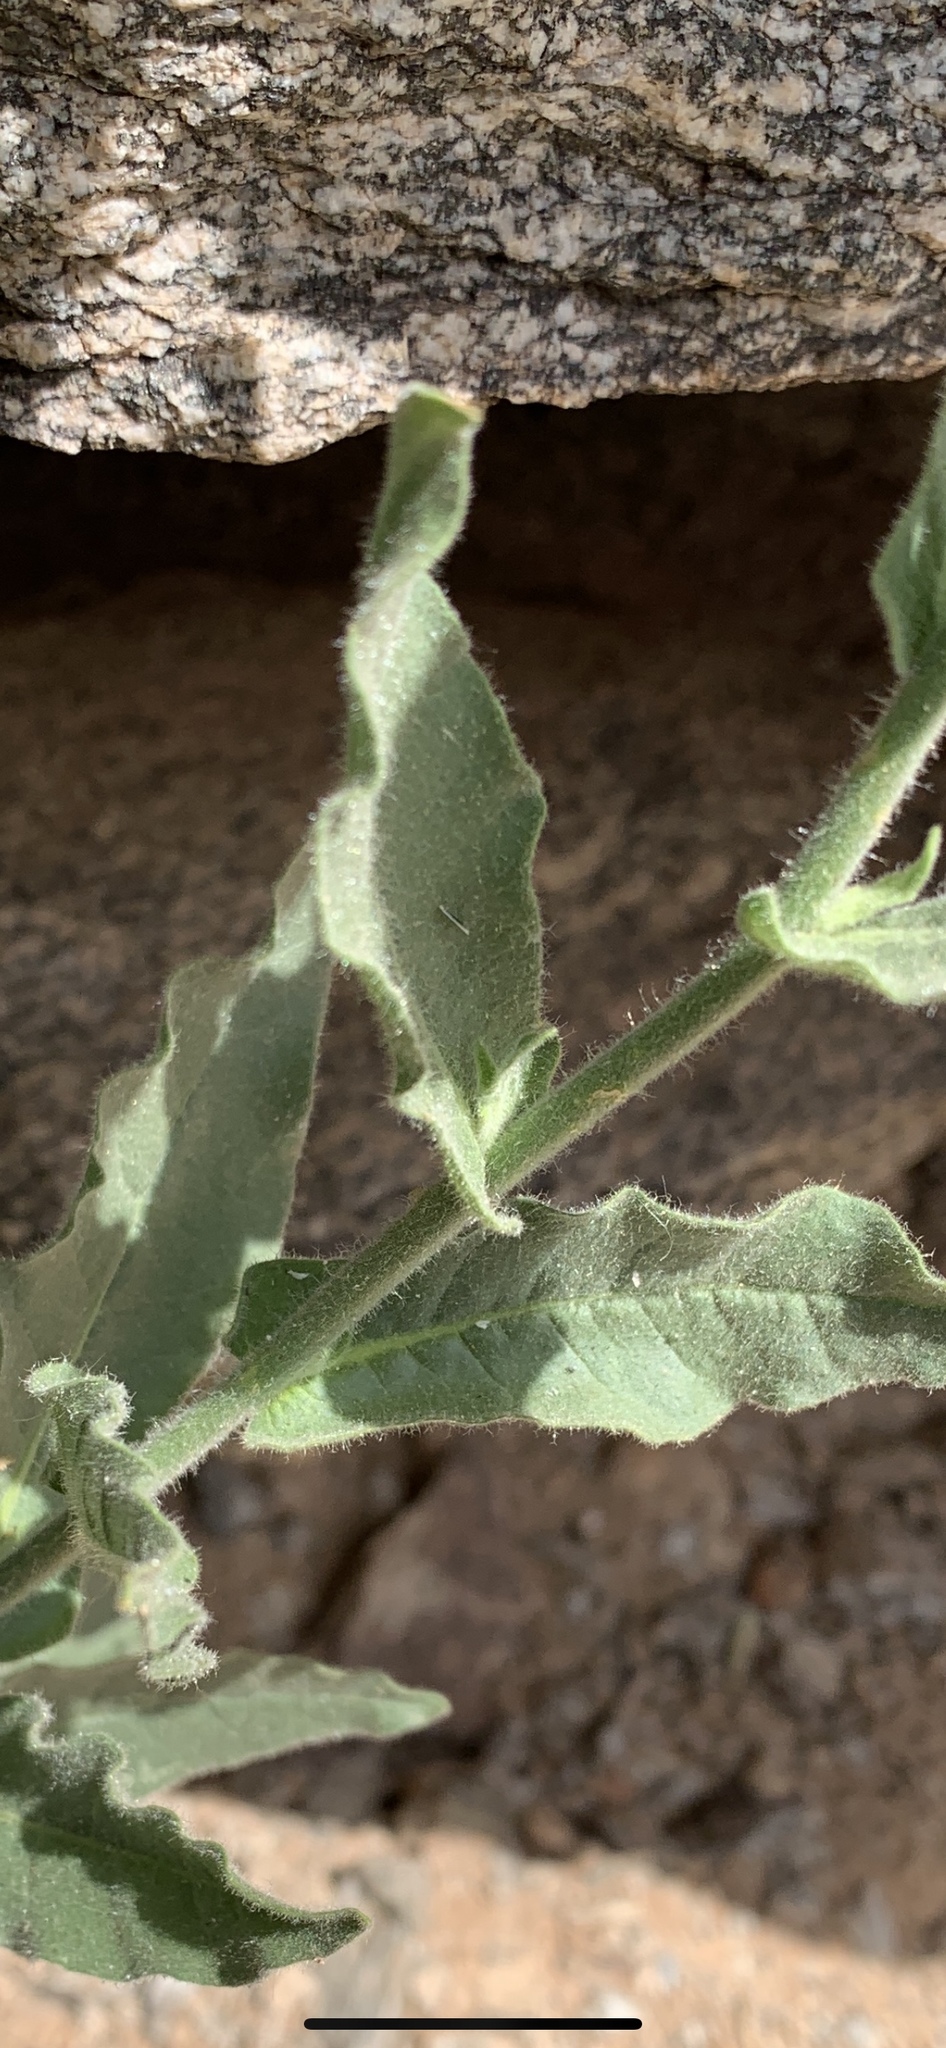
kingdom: Plantae
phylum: Tracheophyta
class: Magnoliopsida
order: Solanales
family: Solanaceae
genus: Nicotiana
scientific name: Nicotiana obtusifolia
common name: Desert tobacco
